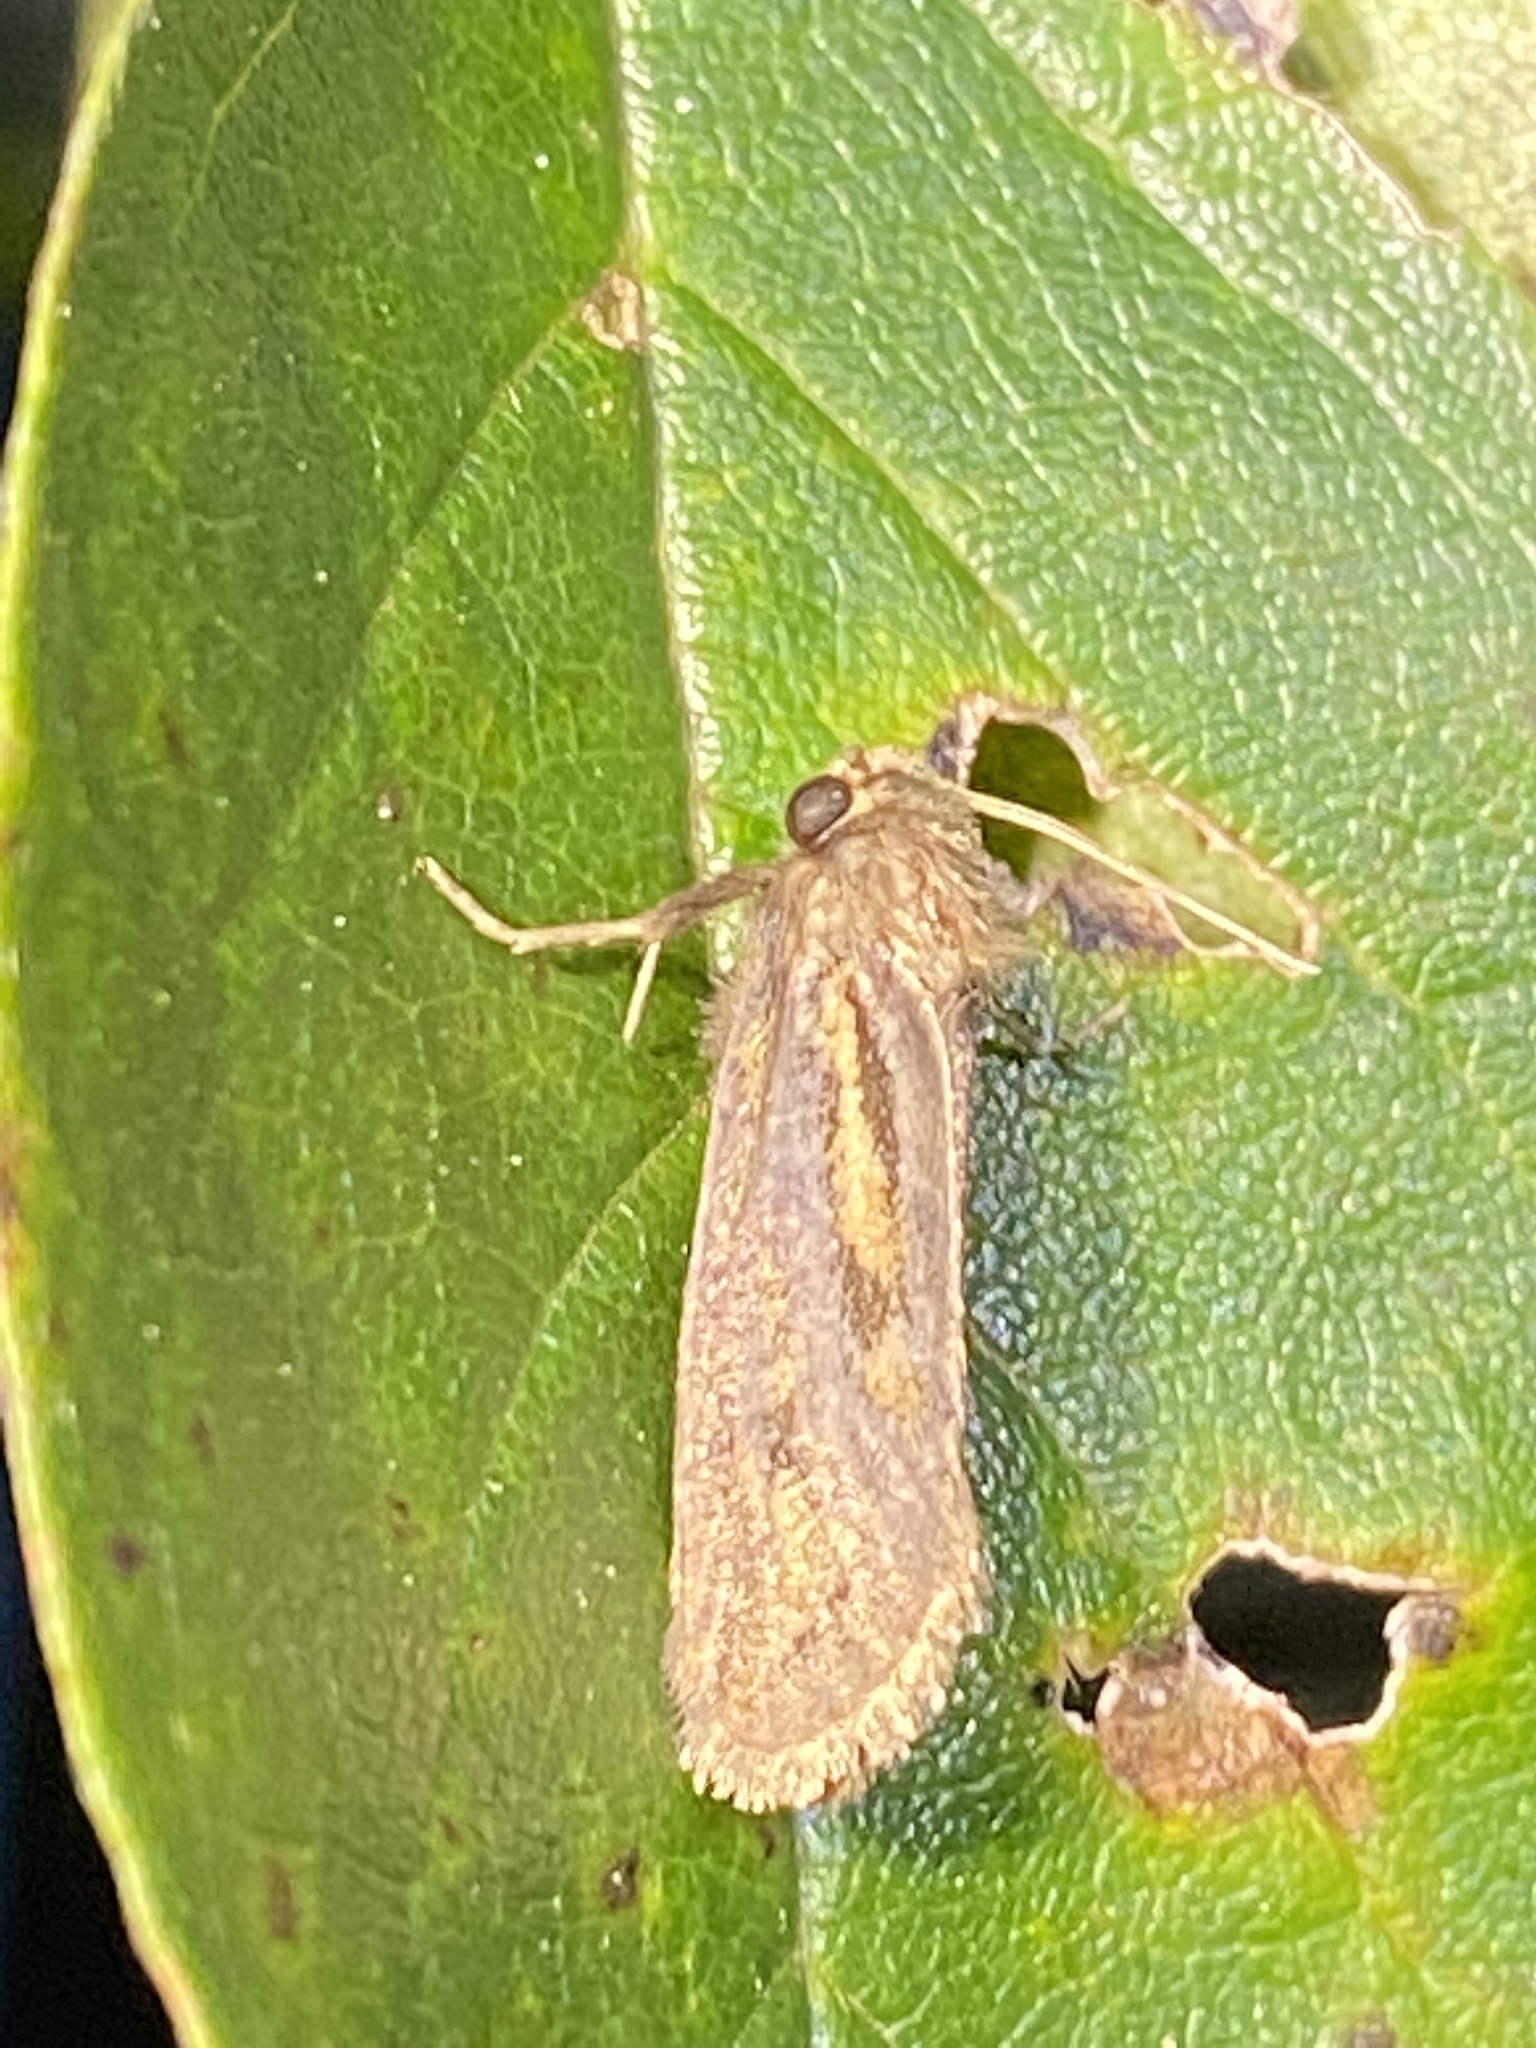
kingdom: Animalia
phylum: Arthropoda
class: Insecta
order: Lepidoptera
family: Tineidae
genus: Acrolophus
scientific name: Acrolophus popeanella
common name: Clemens' grass tubeworm moth
